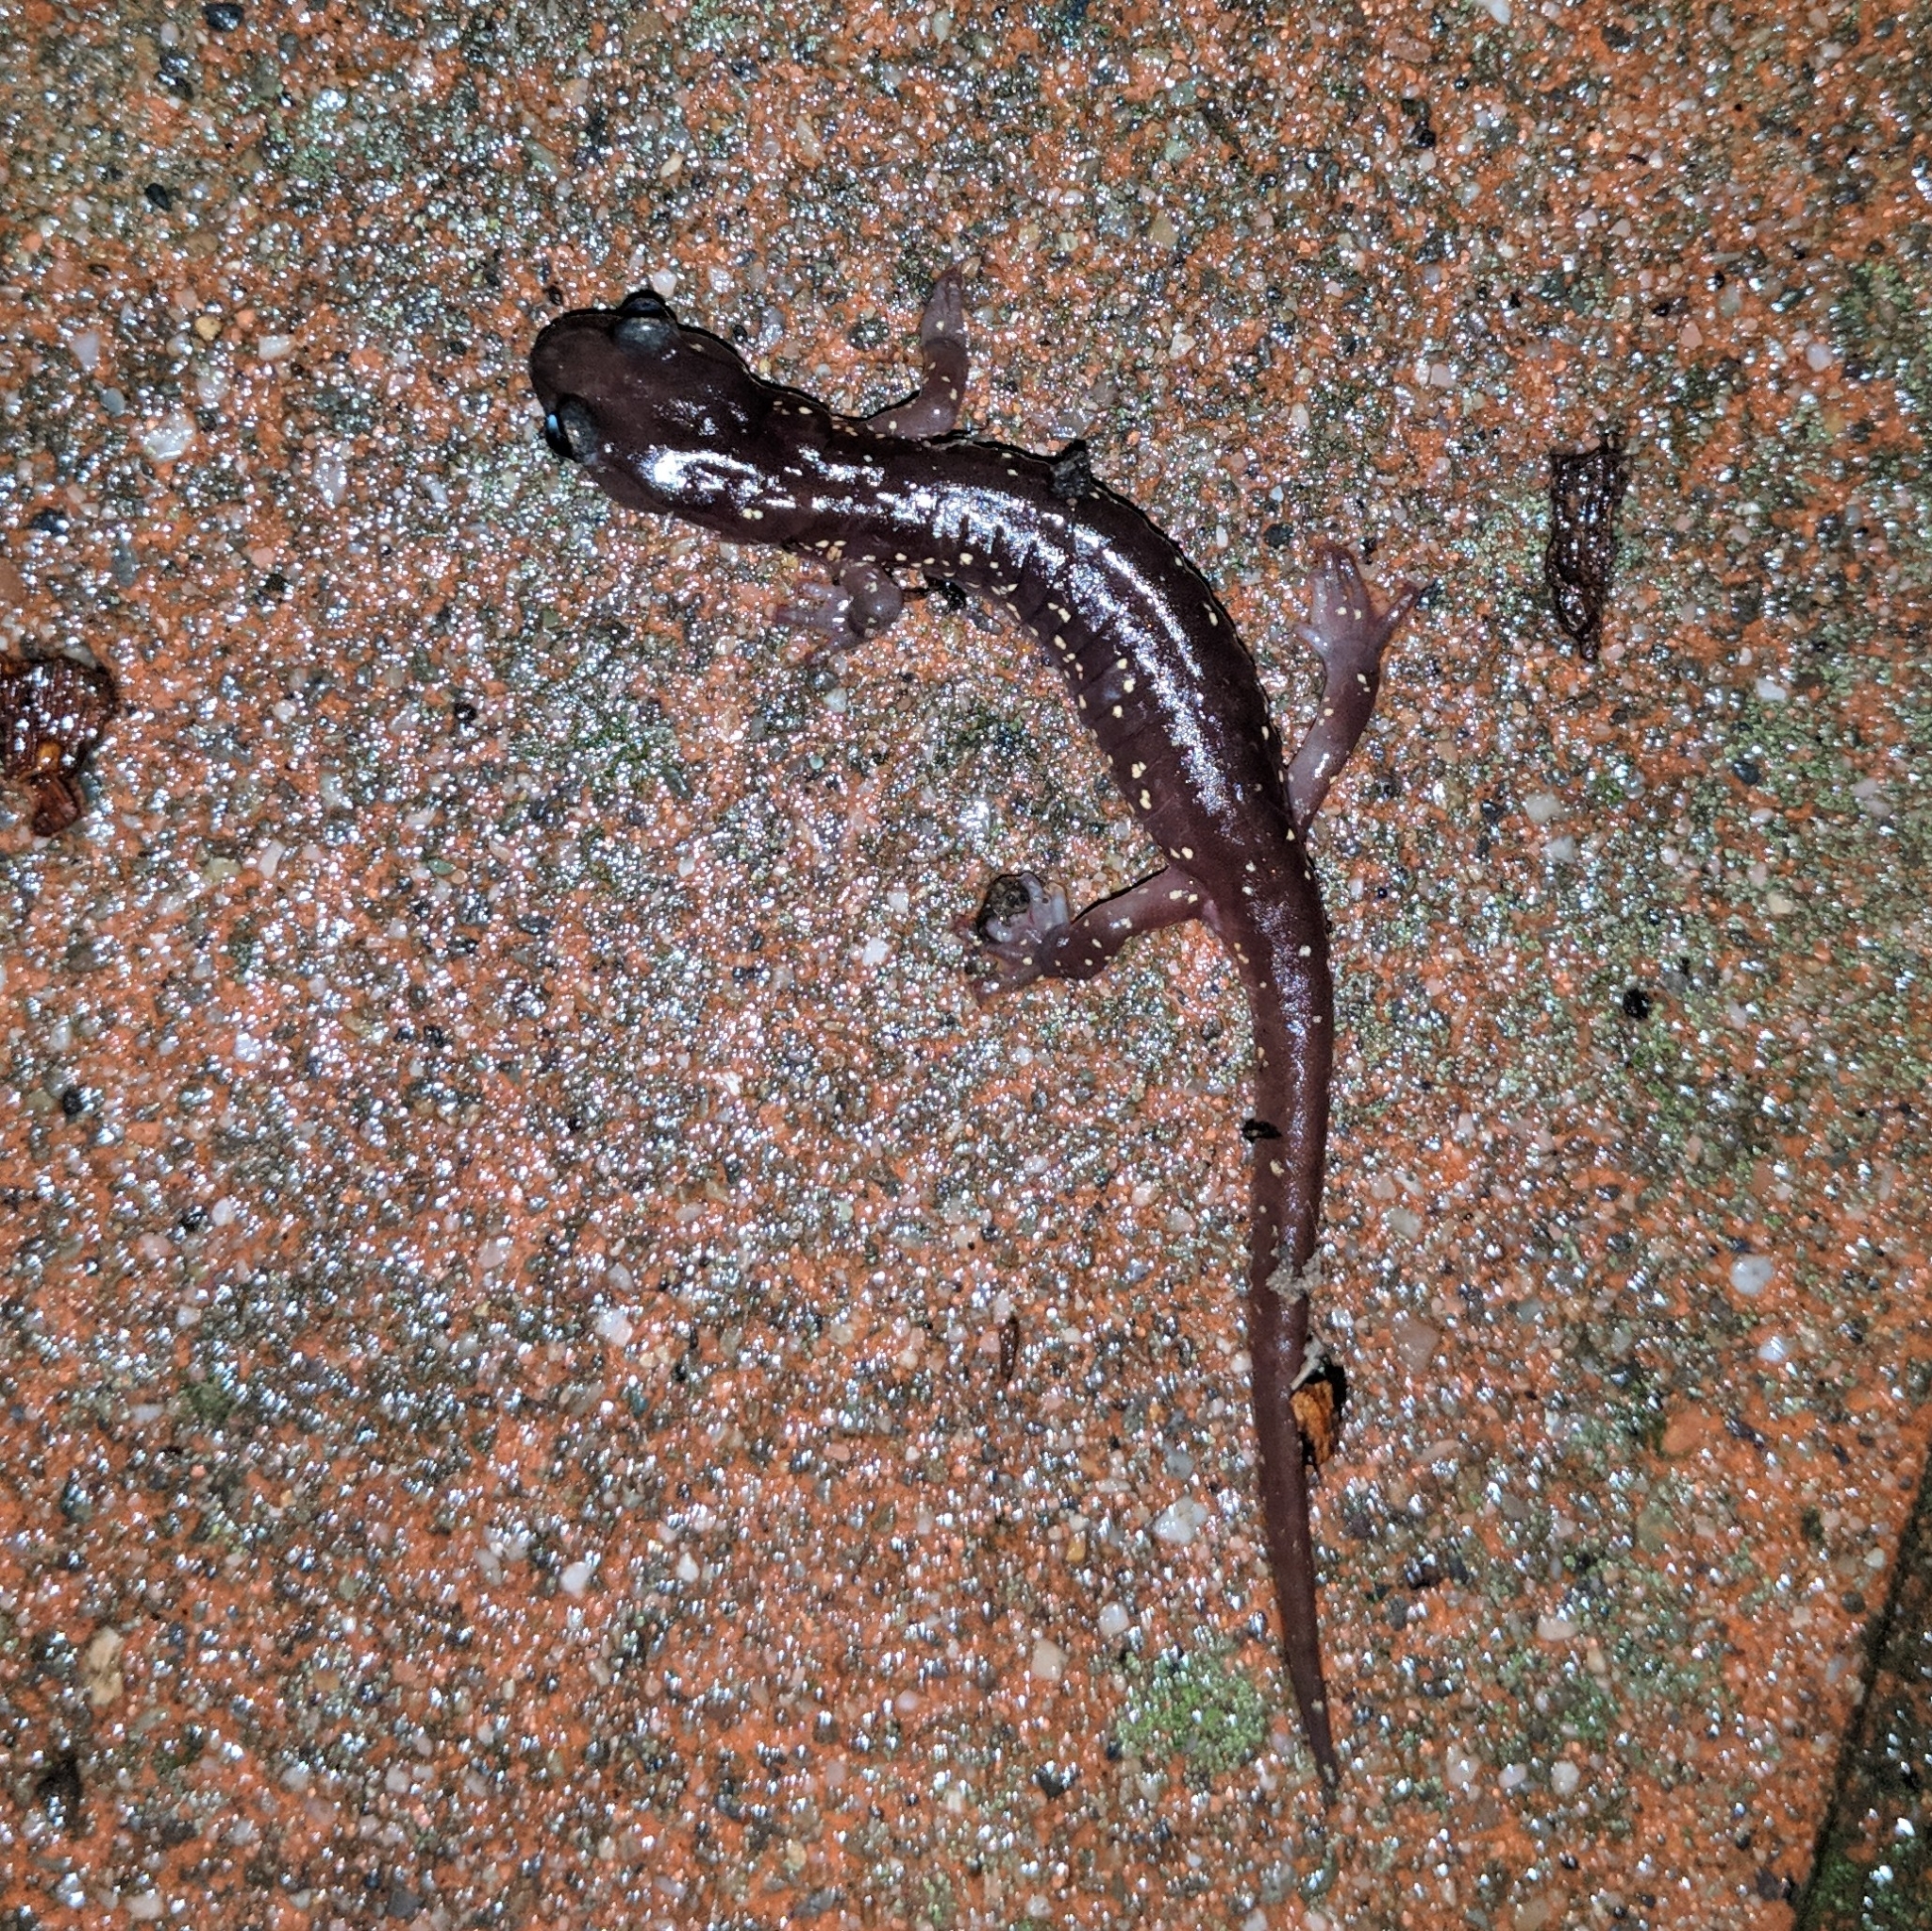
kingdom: Animalia
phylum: Chordata
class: Amphibia
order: Caudata
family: Plethodontidae
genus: Aneides
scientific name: Aneides lugubris
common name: Arboreal salamander
